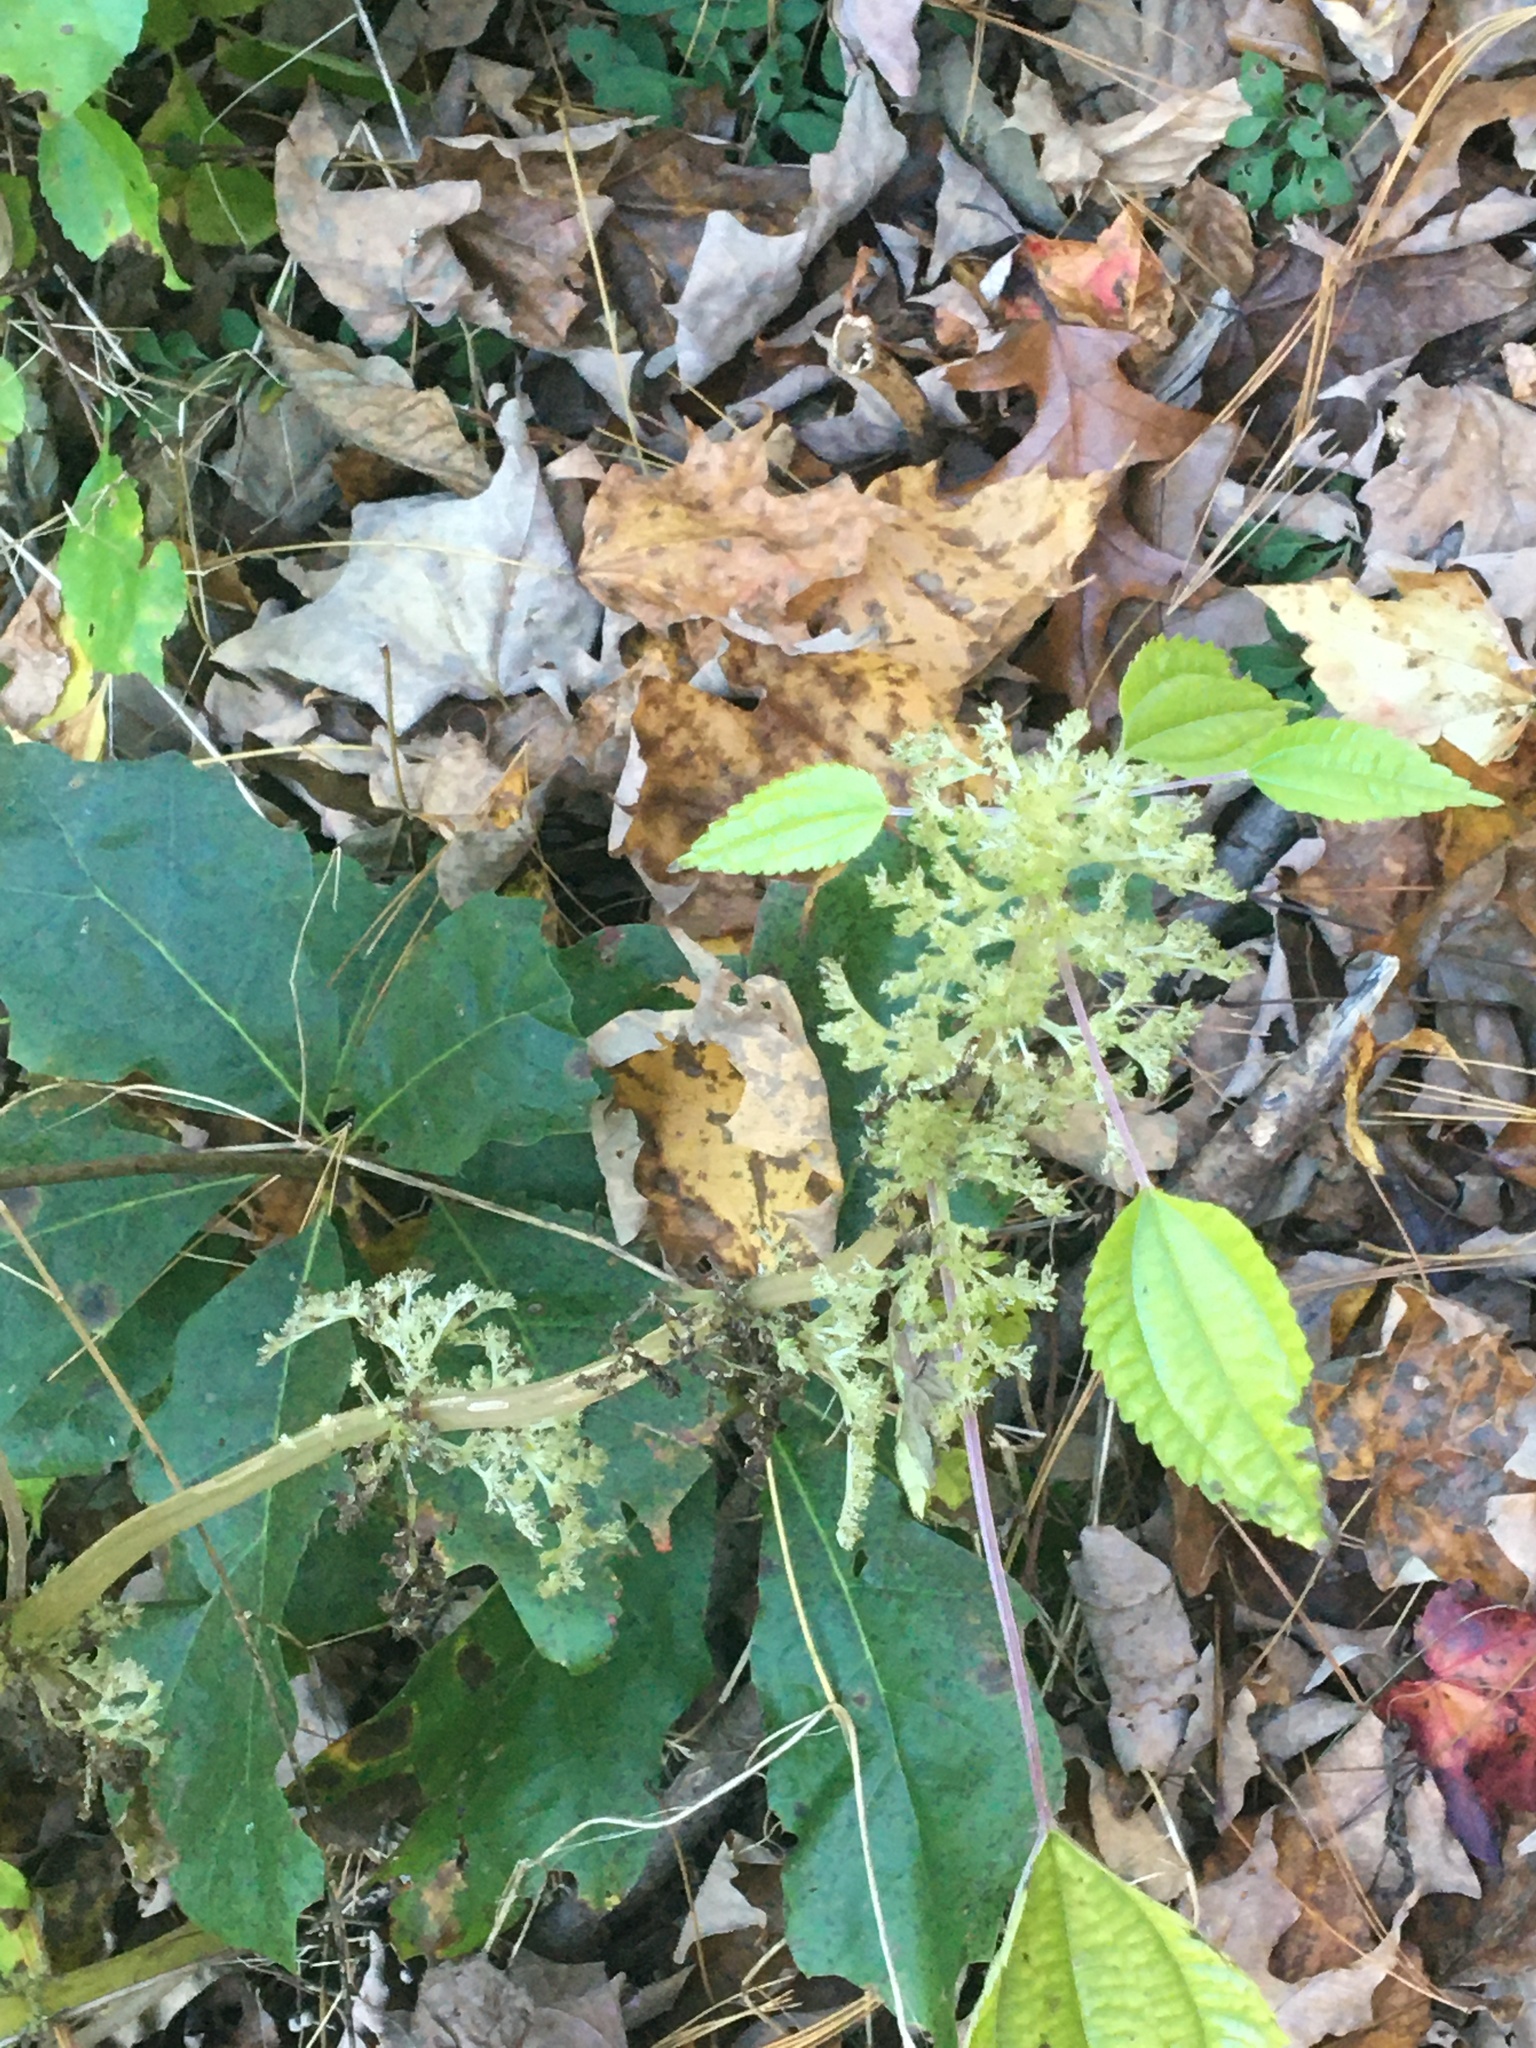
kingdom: Plantae
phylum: Tracheophyta
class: Magnoliopsida
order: Rosales
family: Urticaceae
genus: Pilea
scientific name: Pilea pumila
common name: Clearweed
